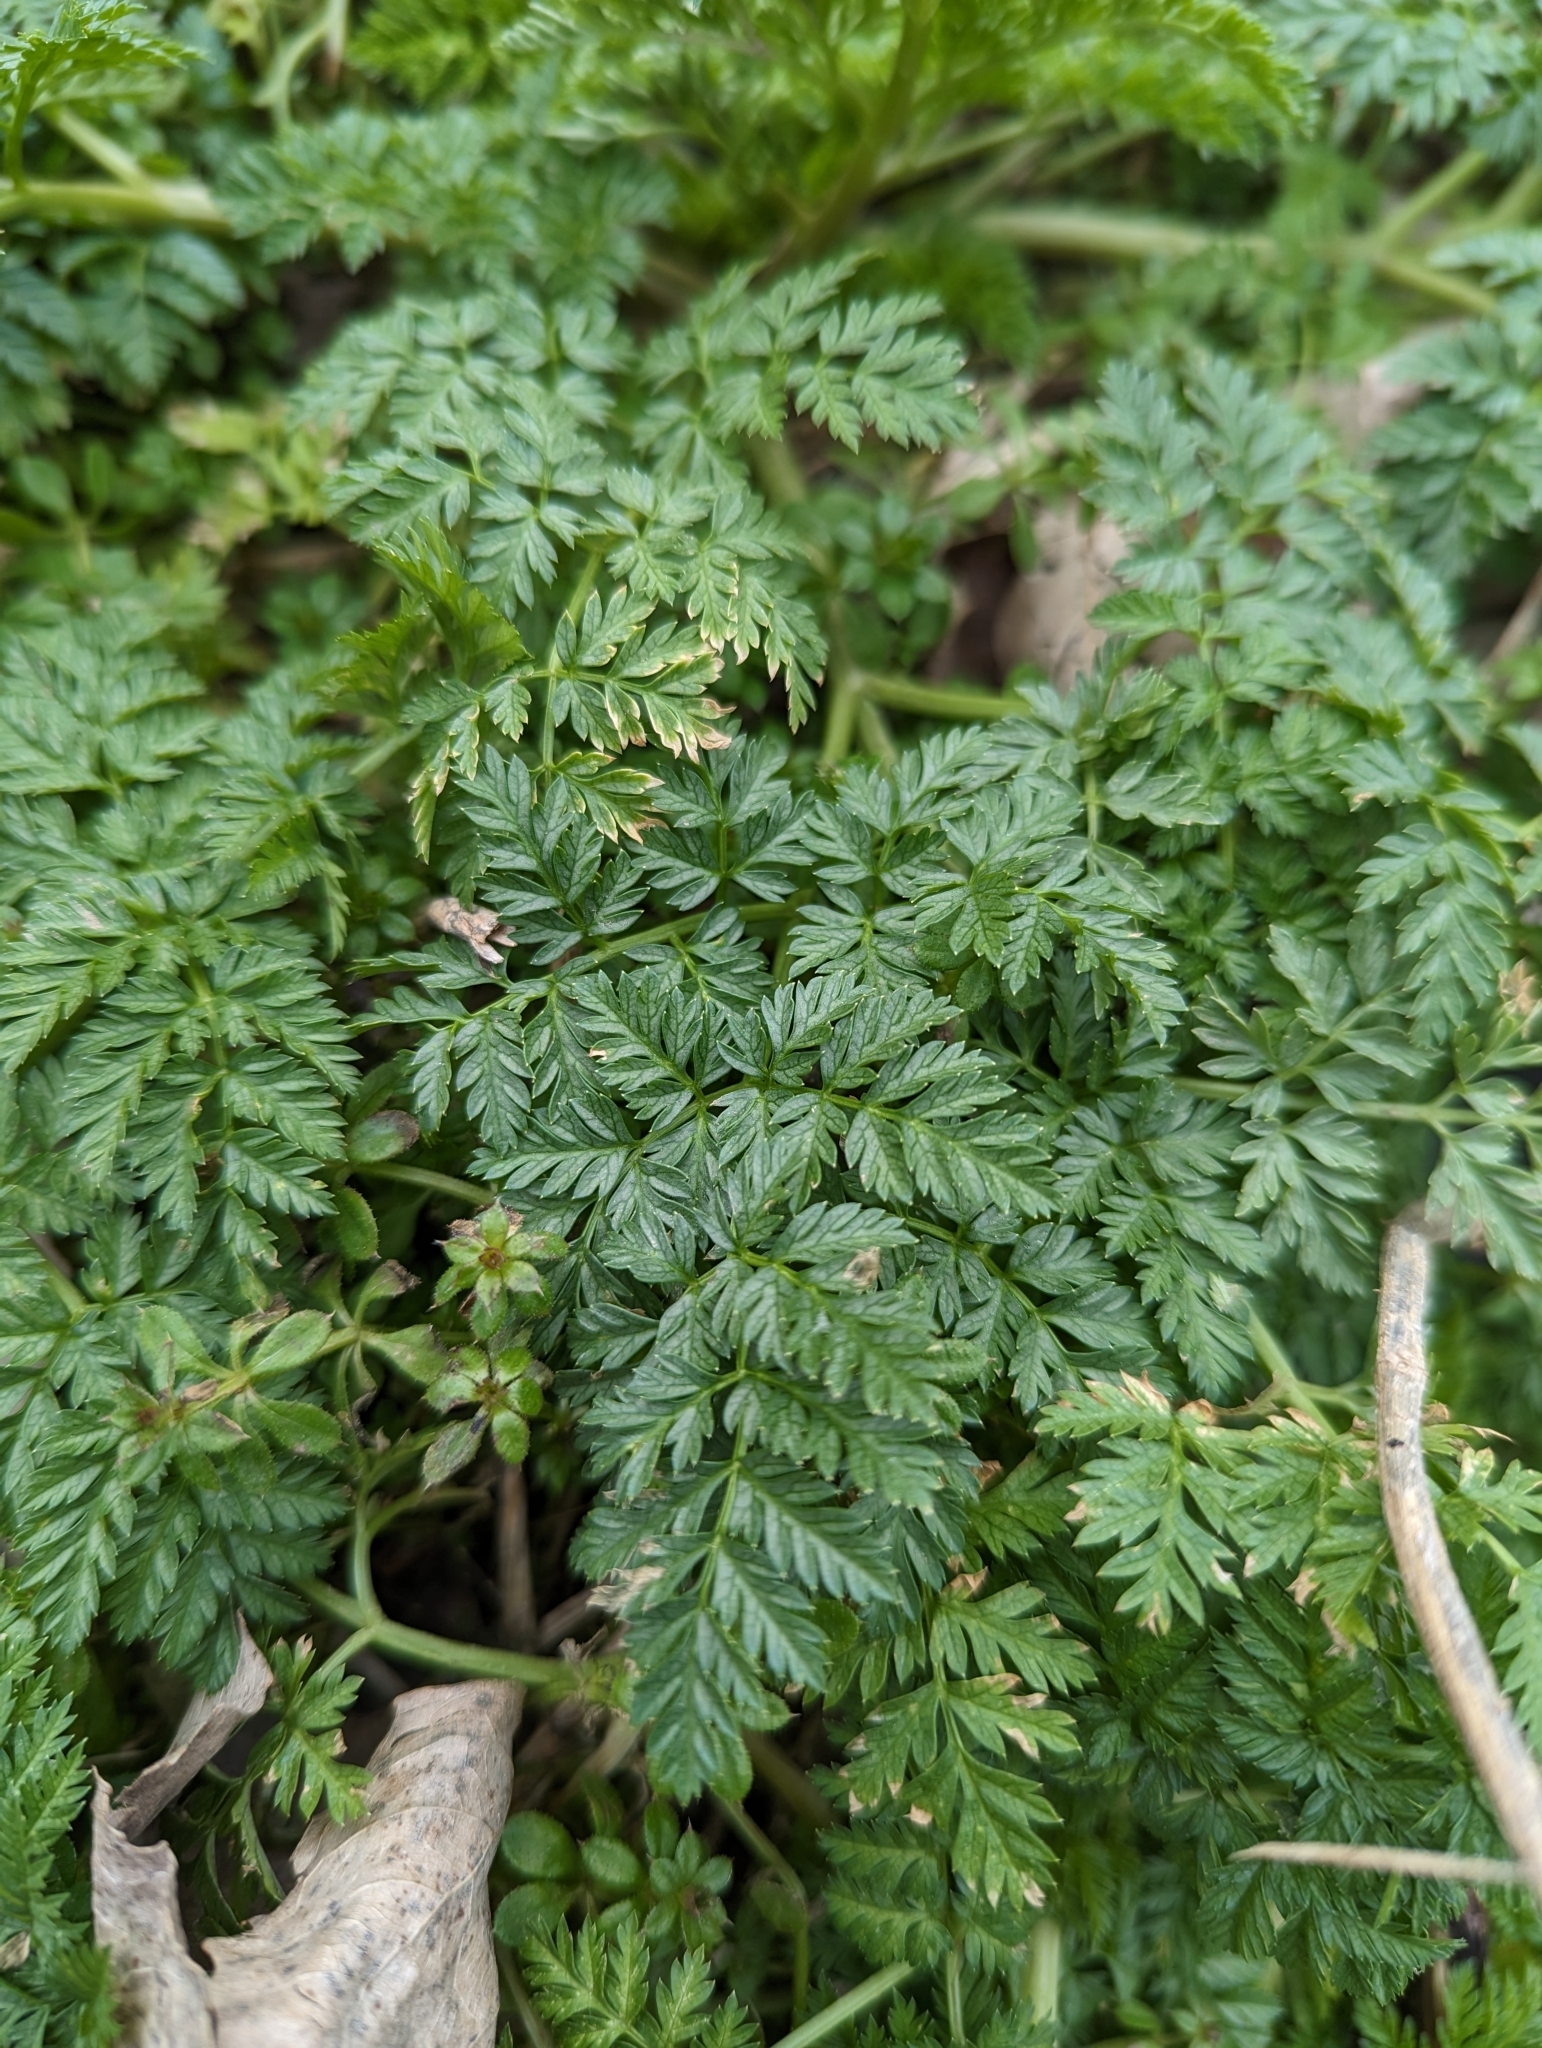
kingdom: Plantae
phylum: Tracheophyta
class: Magnoliopsida
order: Apiales
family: Apiaceae
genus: Conium
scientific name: Conium maculatum
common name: Hemlock
